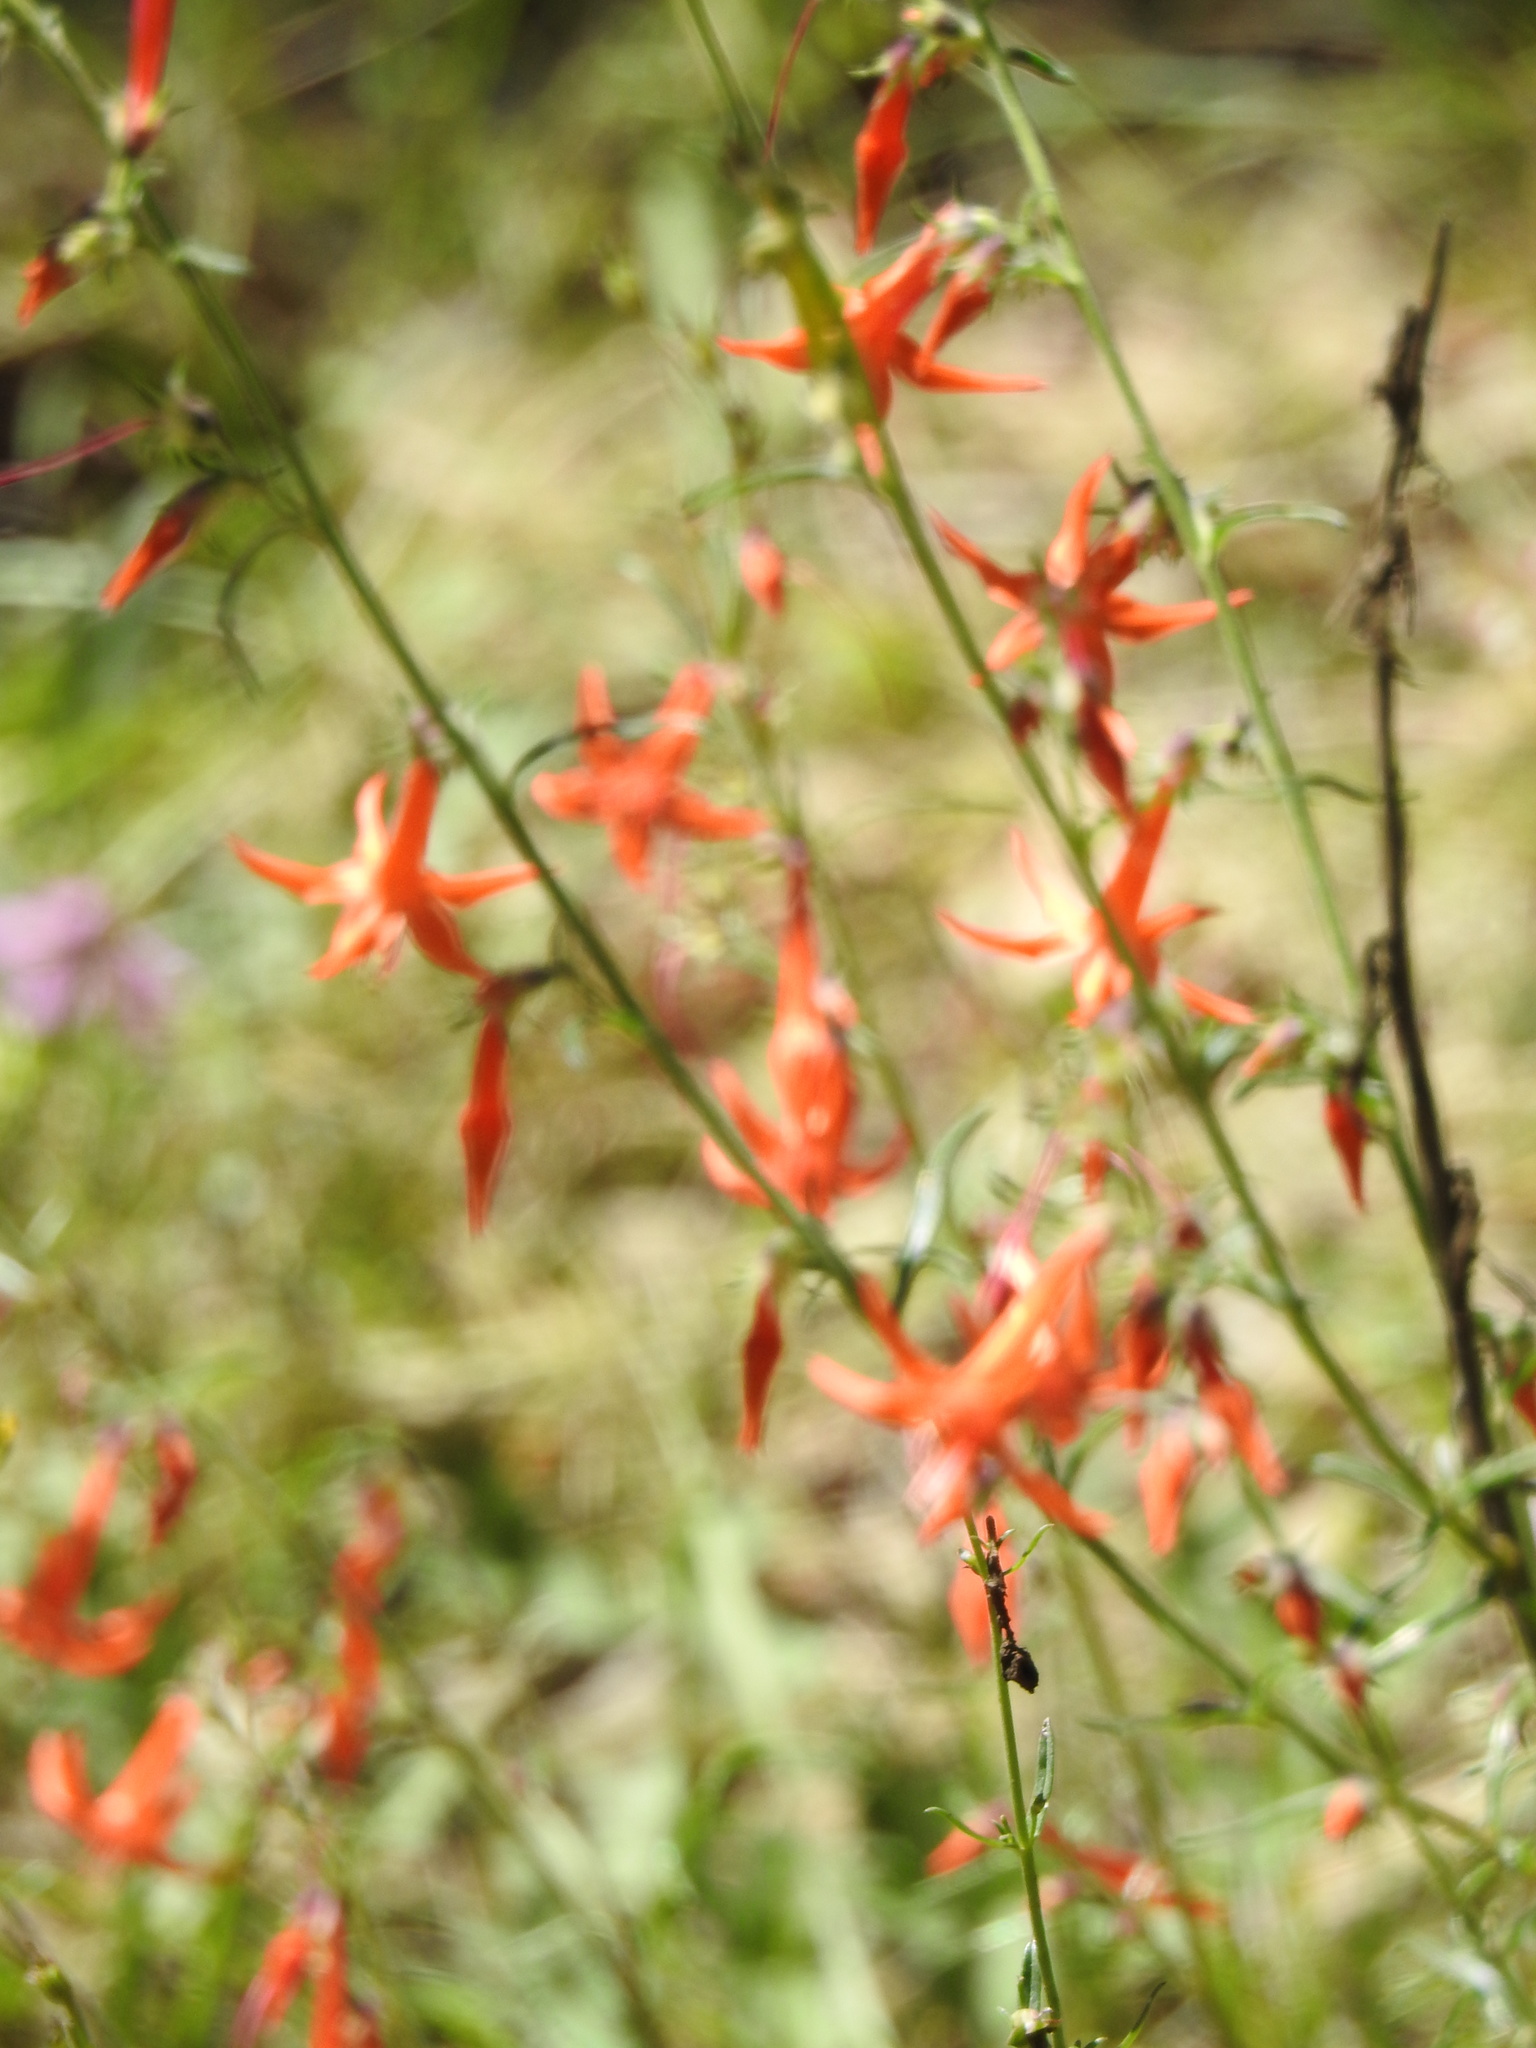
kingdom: Plantae
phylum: Tracheophyta
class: Magnoliopsida
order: Ericales
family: Polemoniaceae
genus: Ipomopsis
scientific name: Ipomopsis aggregata
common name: Scarlet gilia
